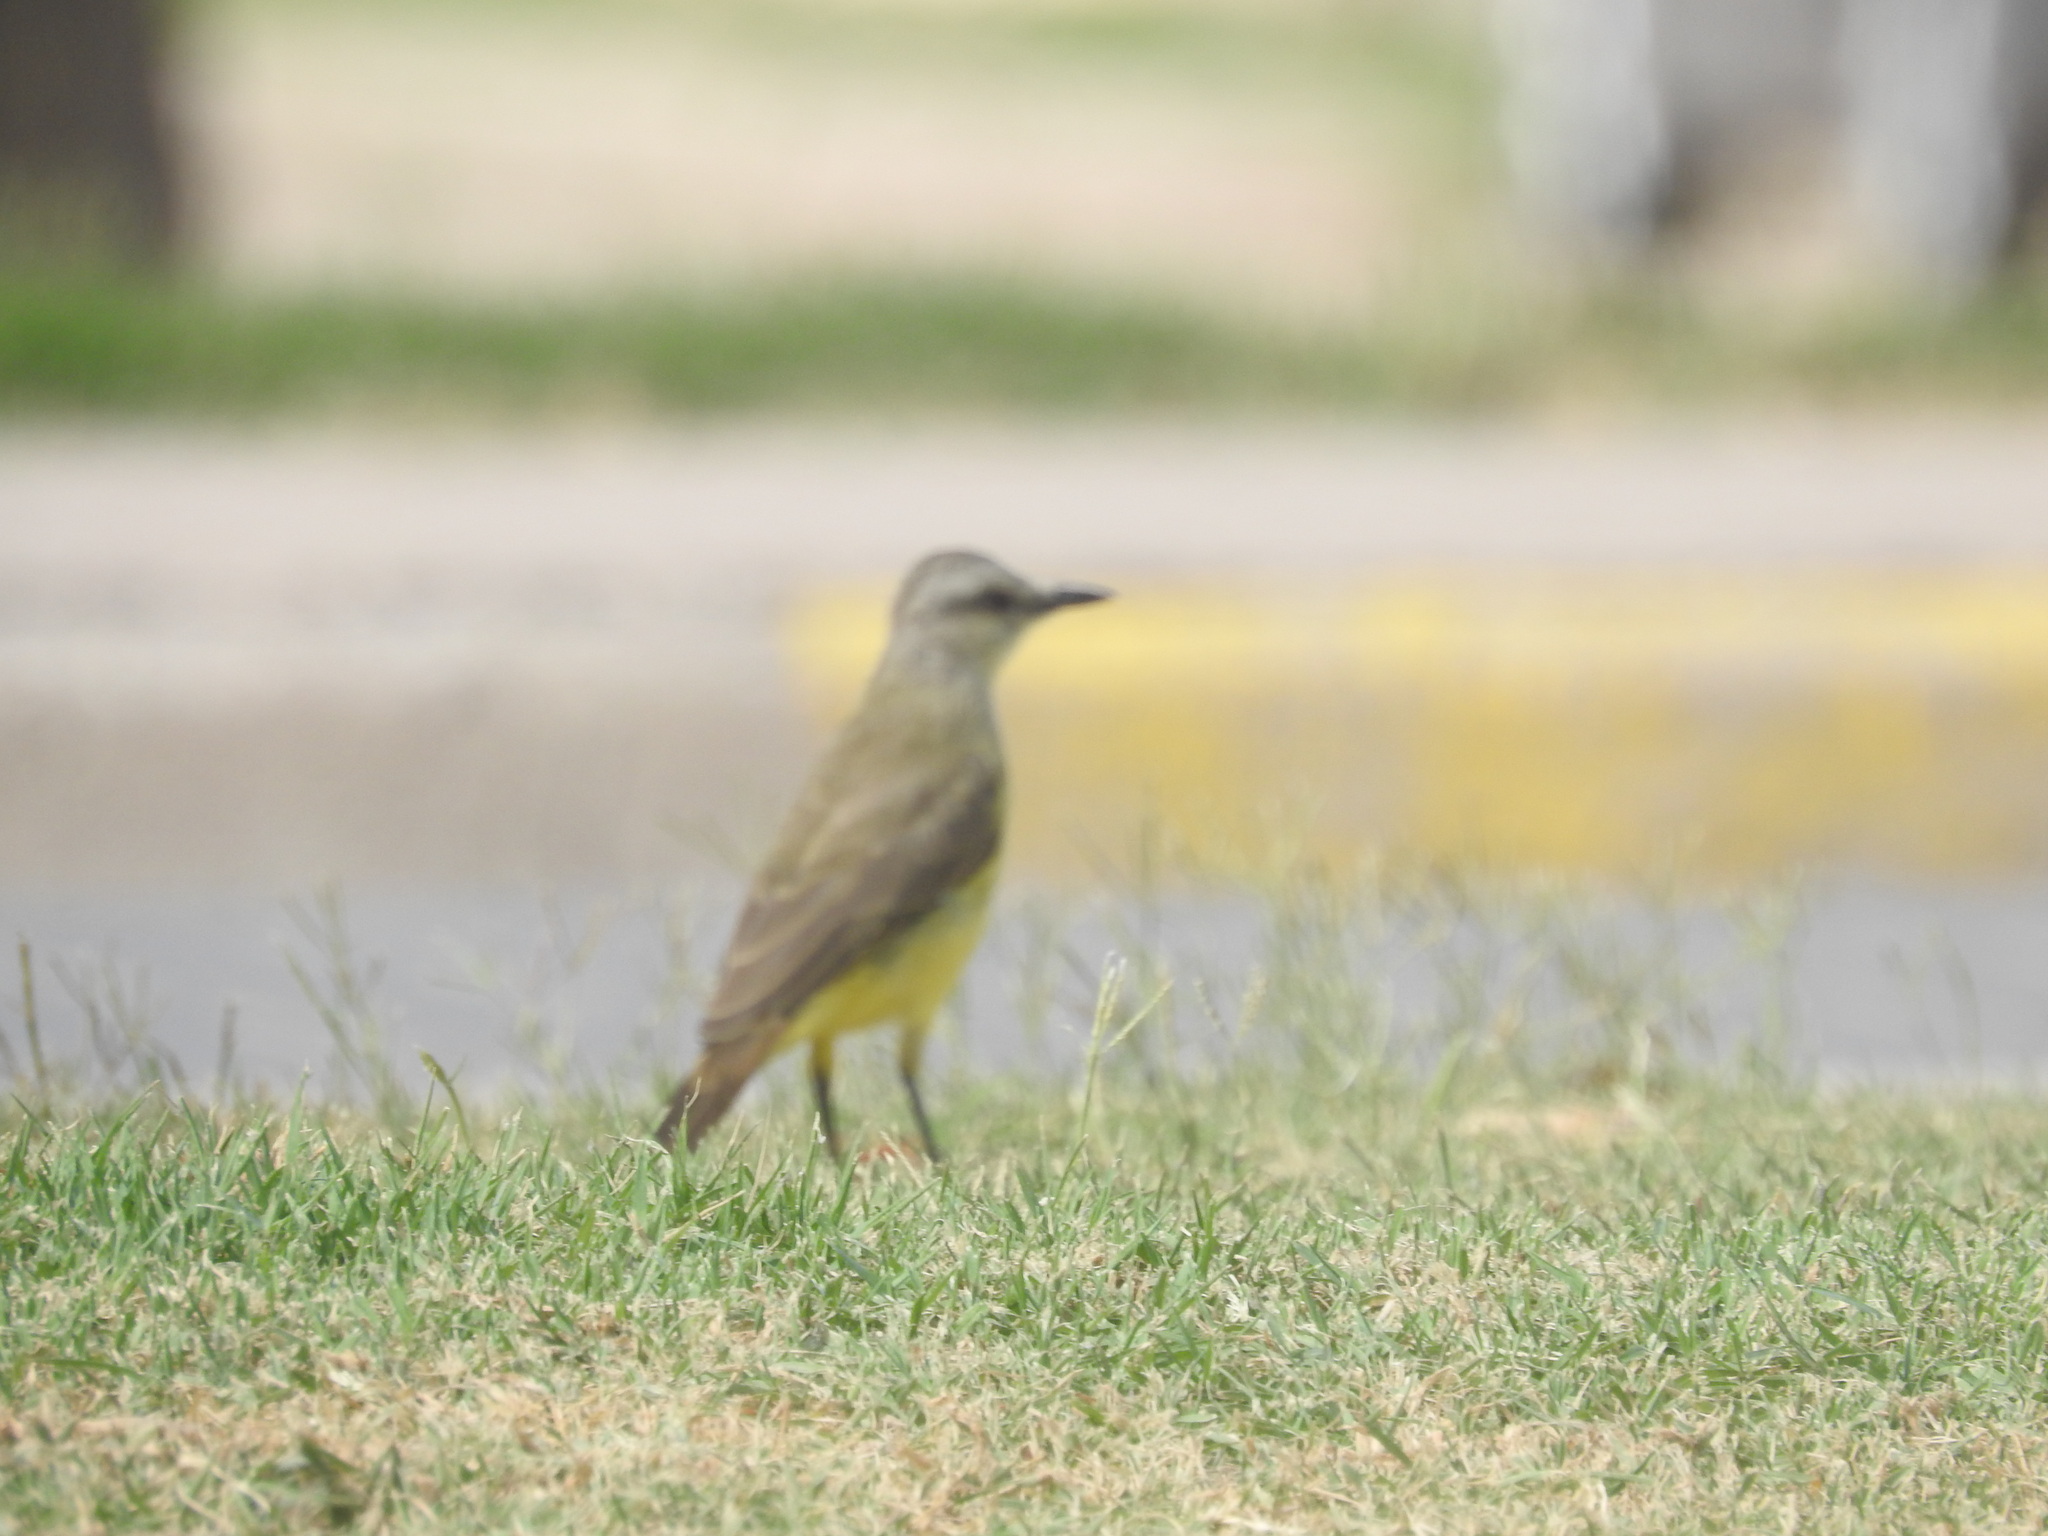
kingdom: Animalia
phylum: Chordata
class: Aves
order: Passeriformes
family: Tyrannidae
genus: Machetornis
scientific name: Machetornis rixosa
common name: Cattle tyrant
